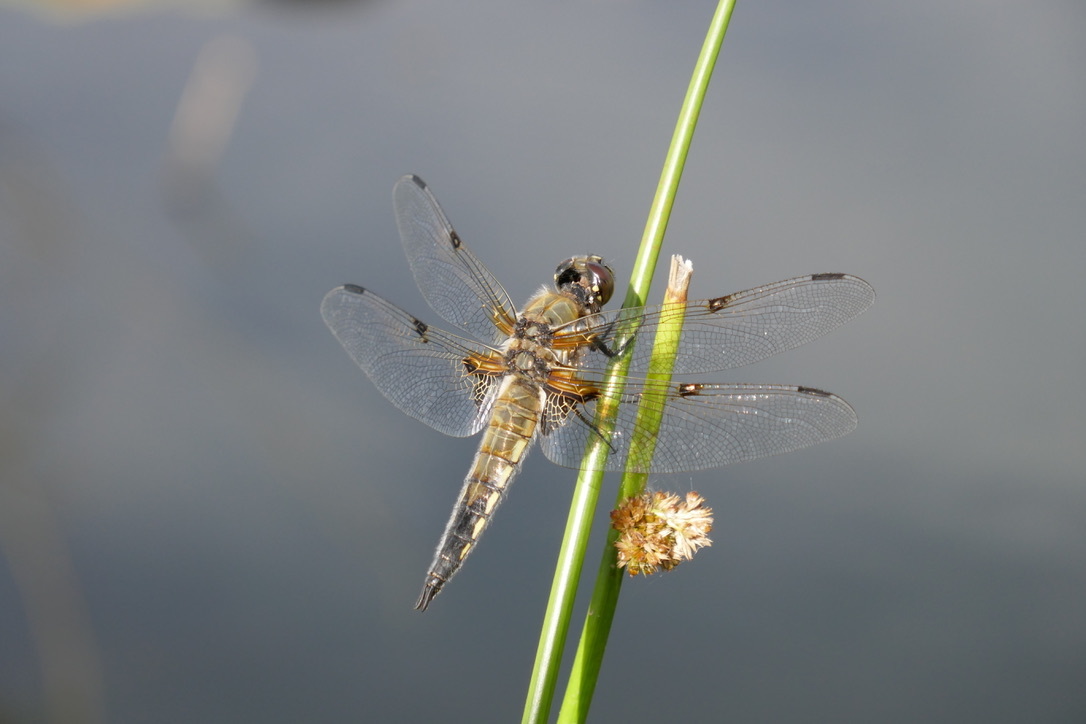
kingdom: Animalia
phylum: Arthropoda
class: Insecta
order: Odonata
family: Libellulidae
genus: Libellula
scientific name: Libellula quadrimaculata
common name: Four-spotted chaser
